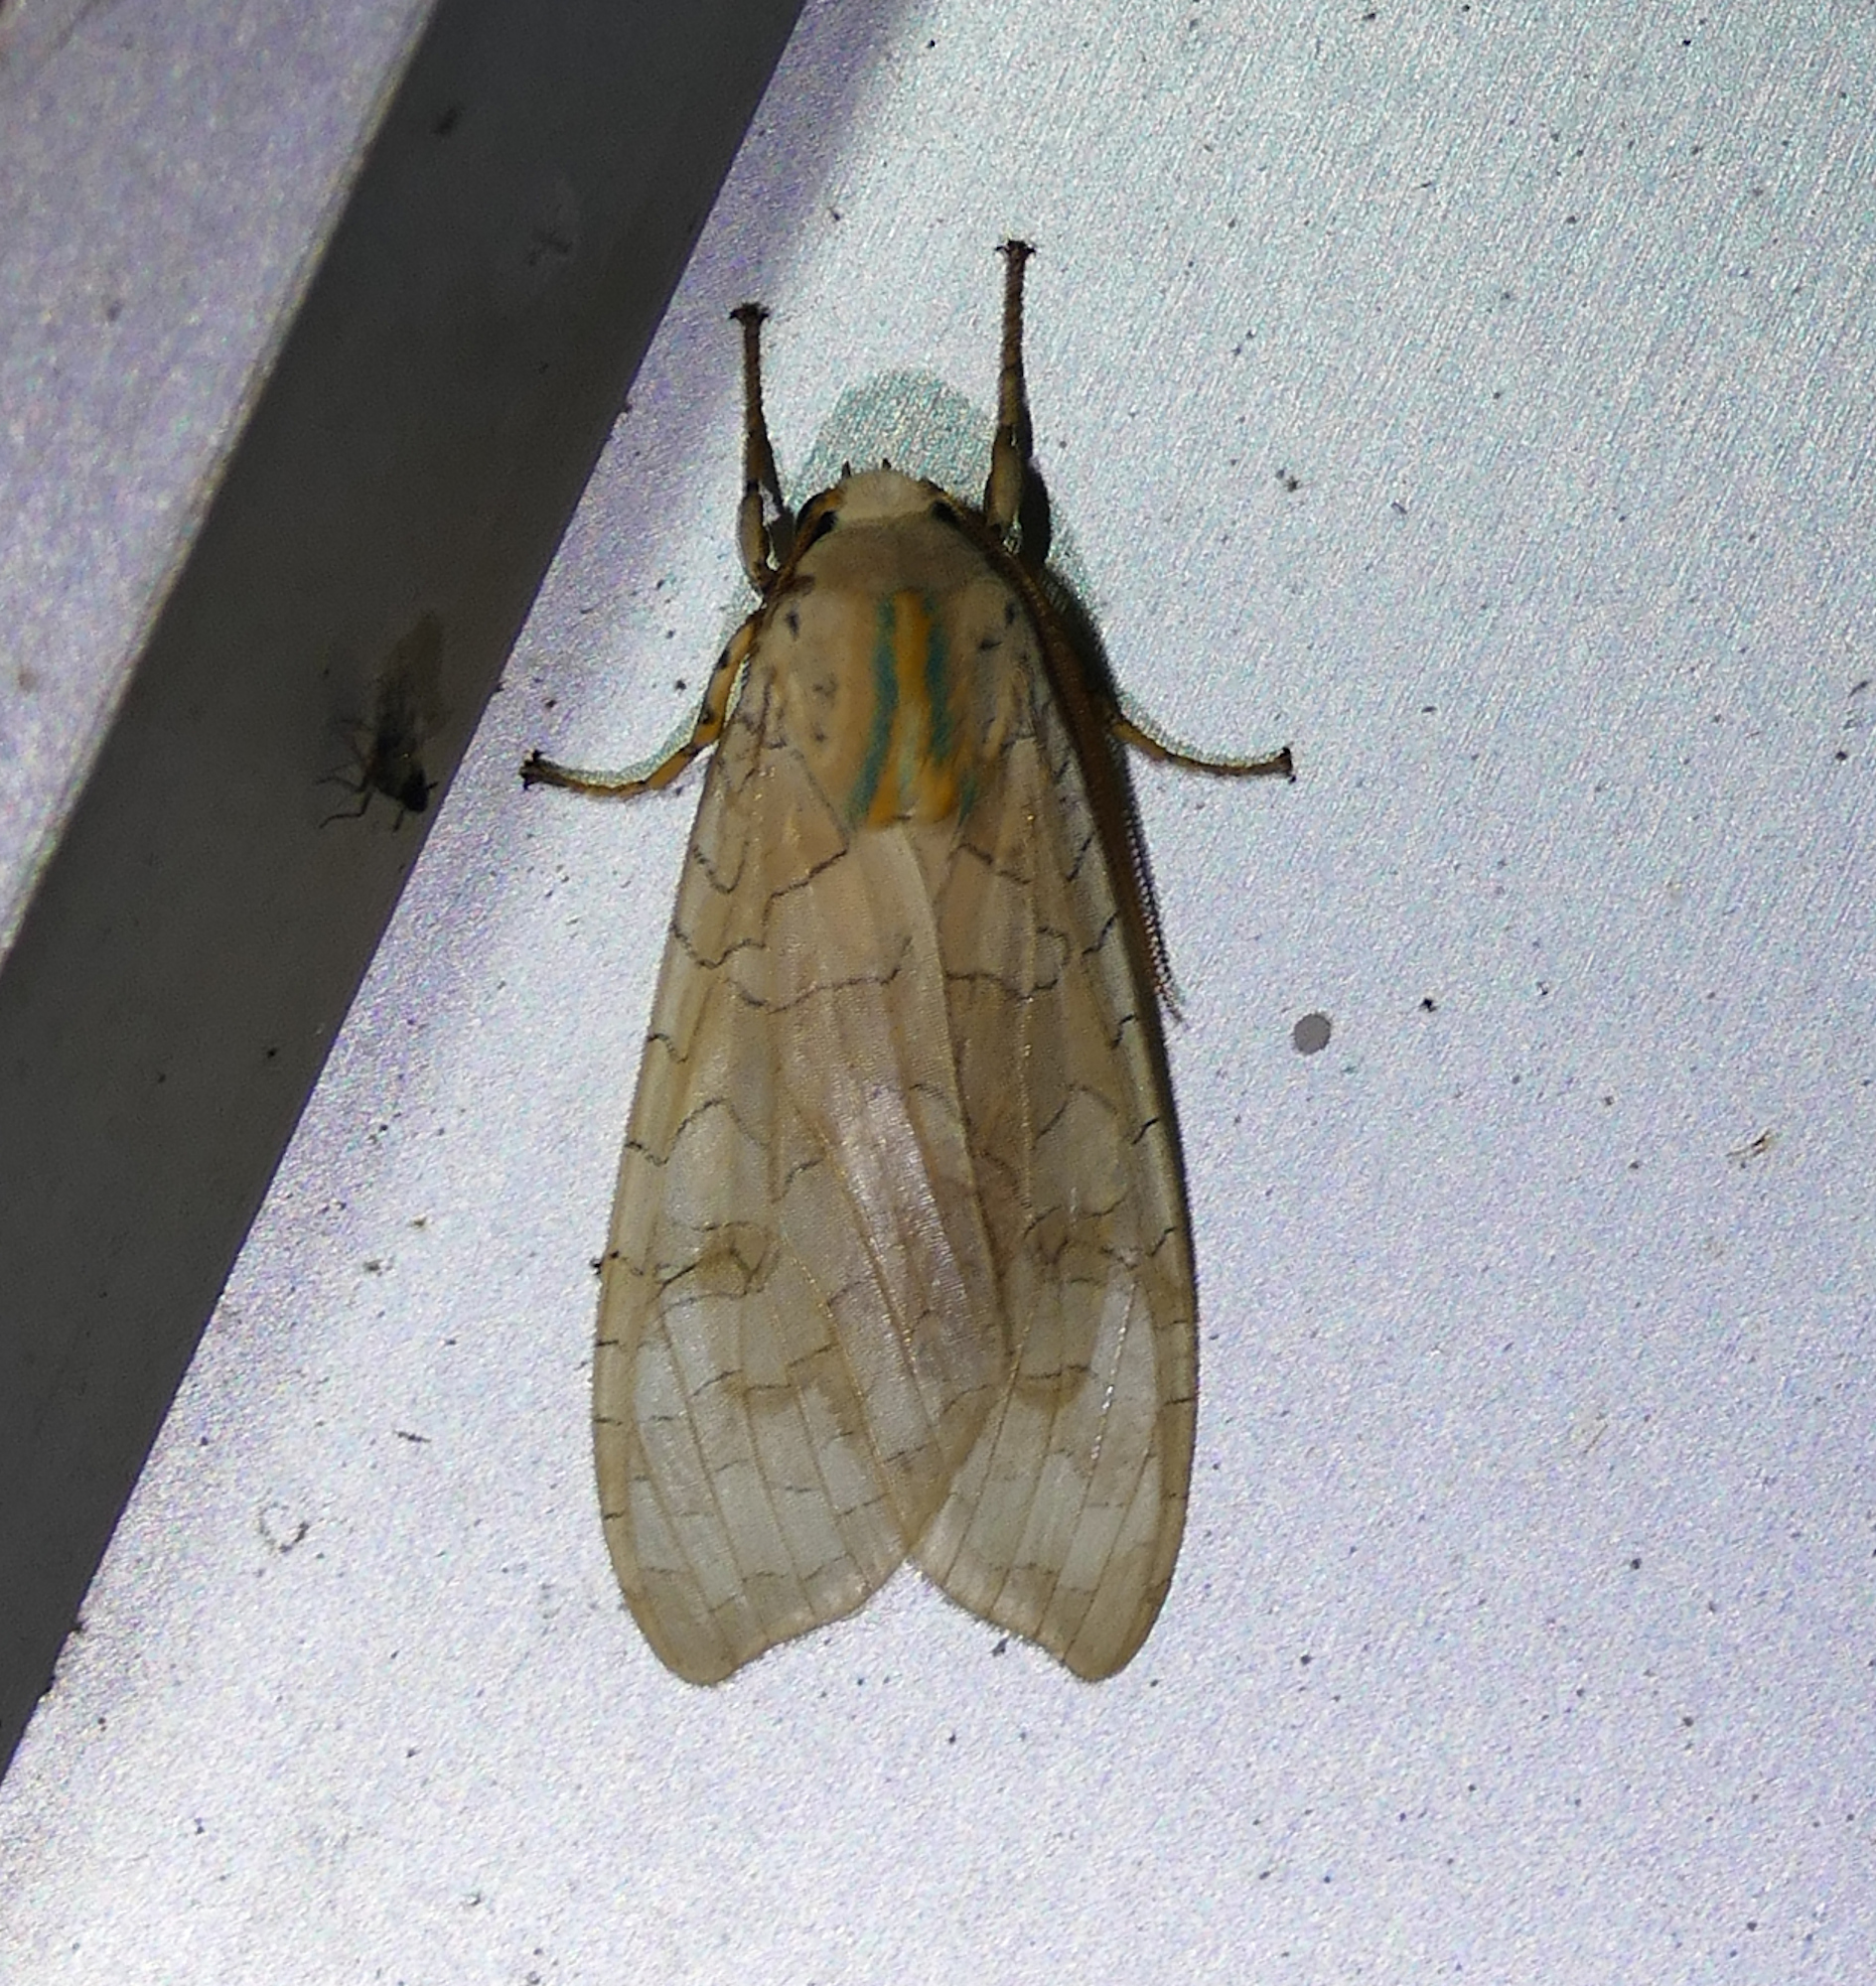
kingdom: Animalia
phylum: Arthropoda
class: Insecta
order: Lepidoptera
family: Erebidae
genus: Halysidota
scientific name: Halysidota
